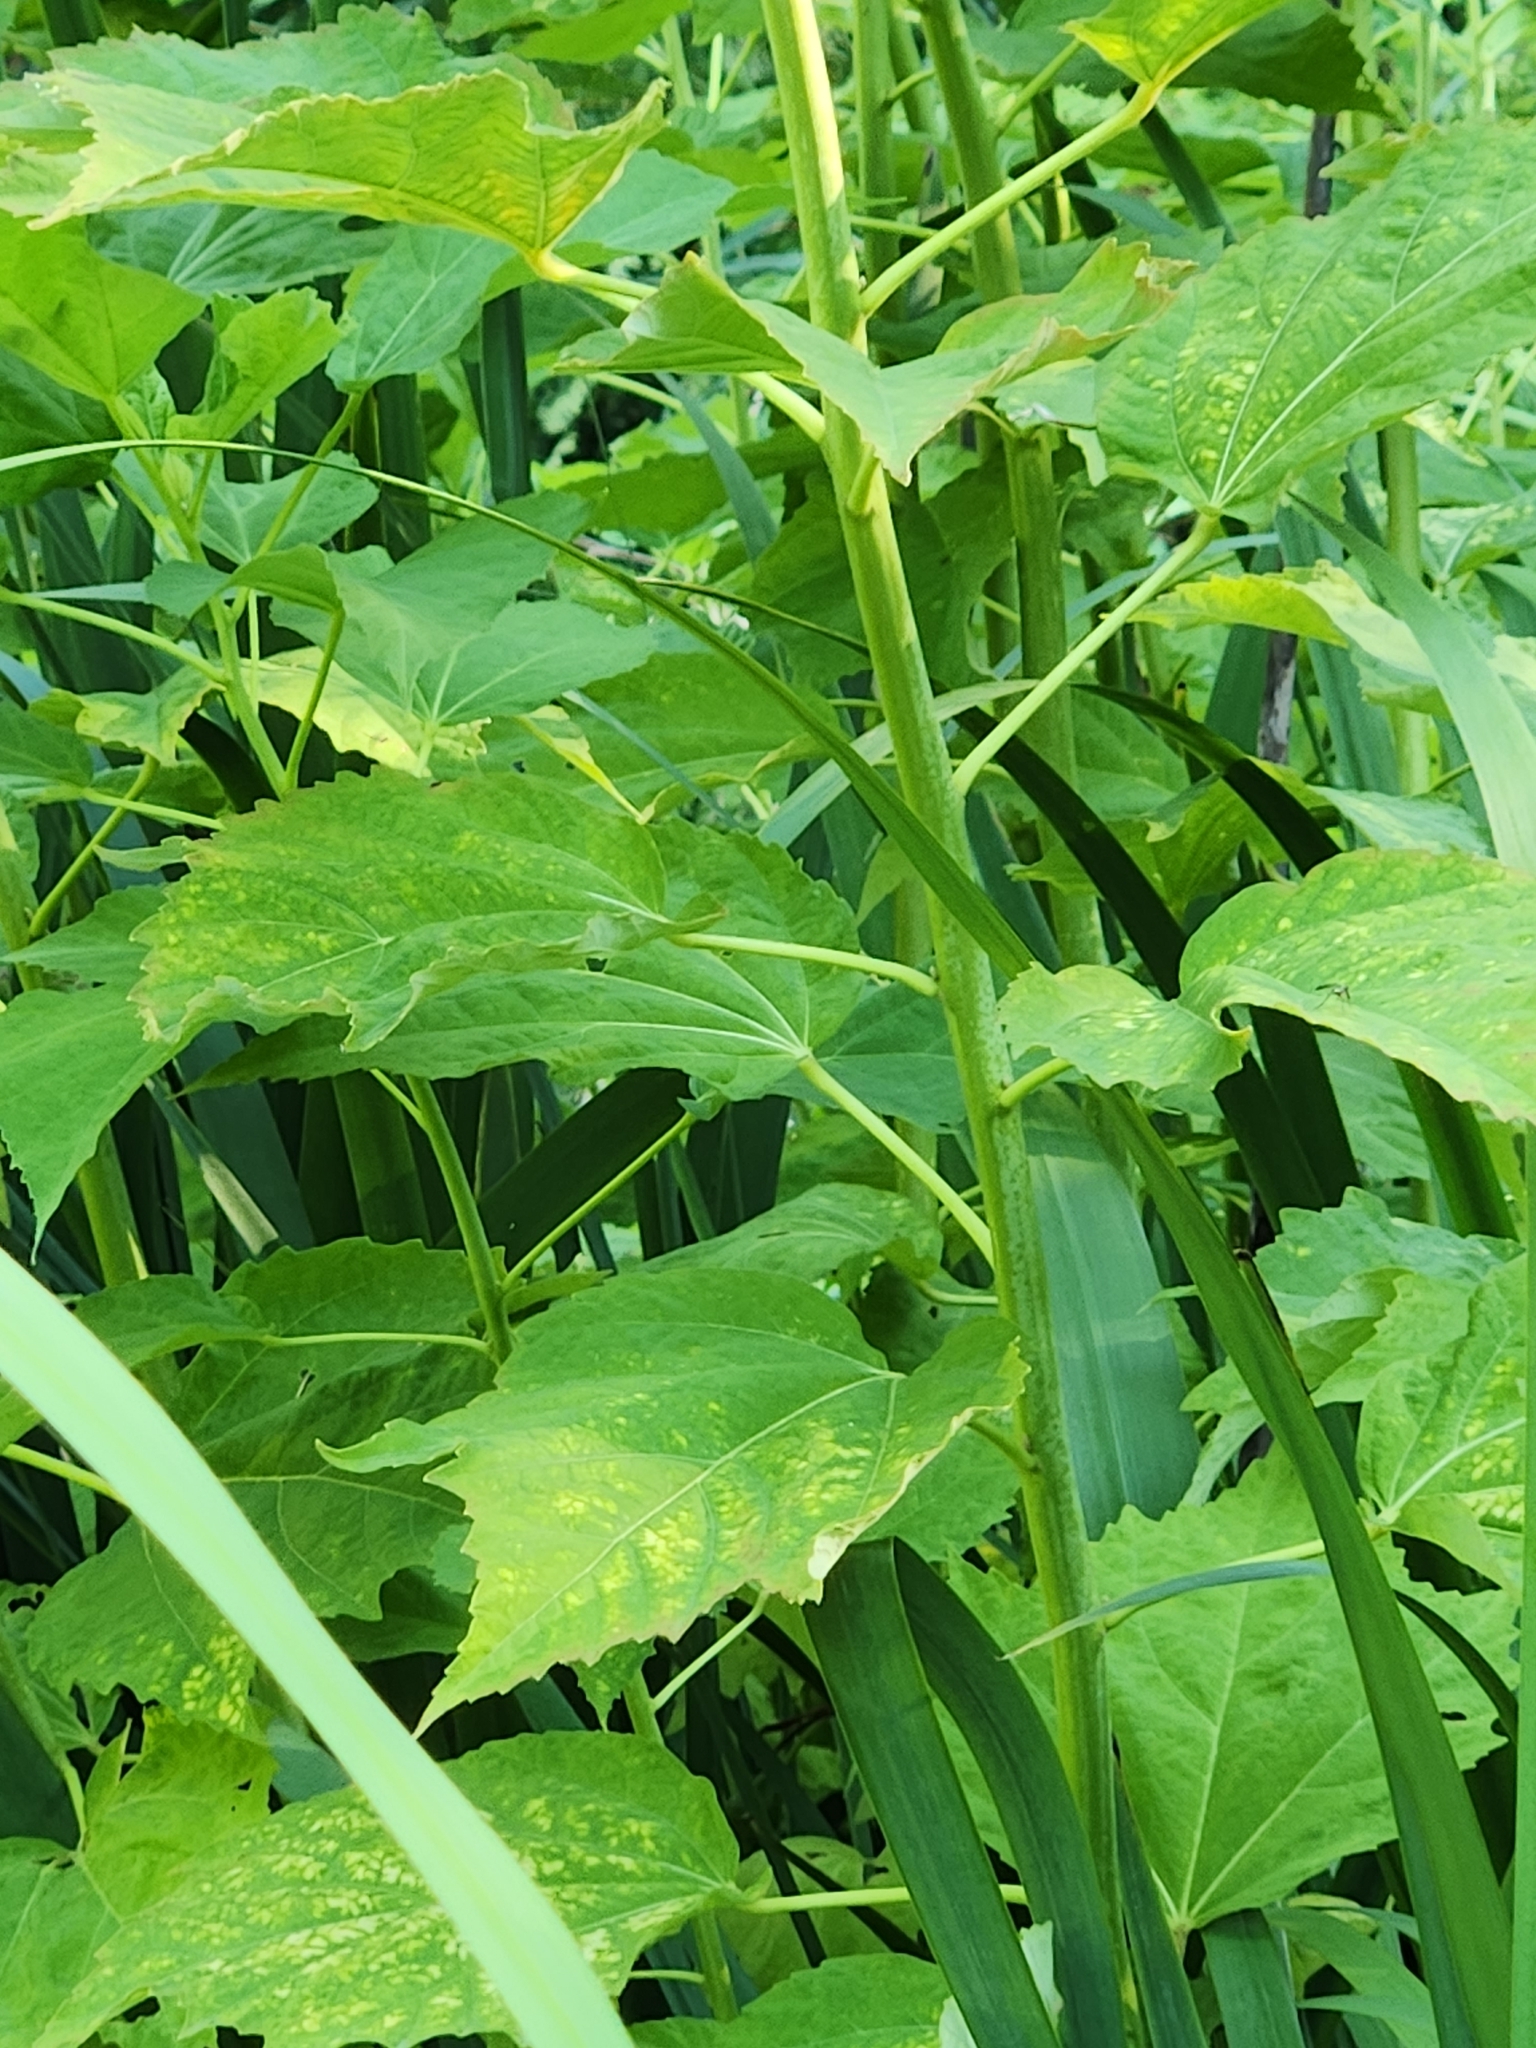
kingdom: Plantae
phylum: Tracheophyta
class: Magnoliopsida
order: Malvales
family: Malvaceae
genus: Hibiscus
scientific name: Hibiscus moscheutos
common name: Common rose-mallow
